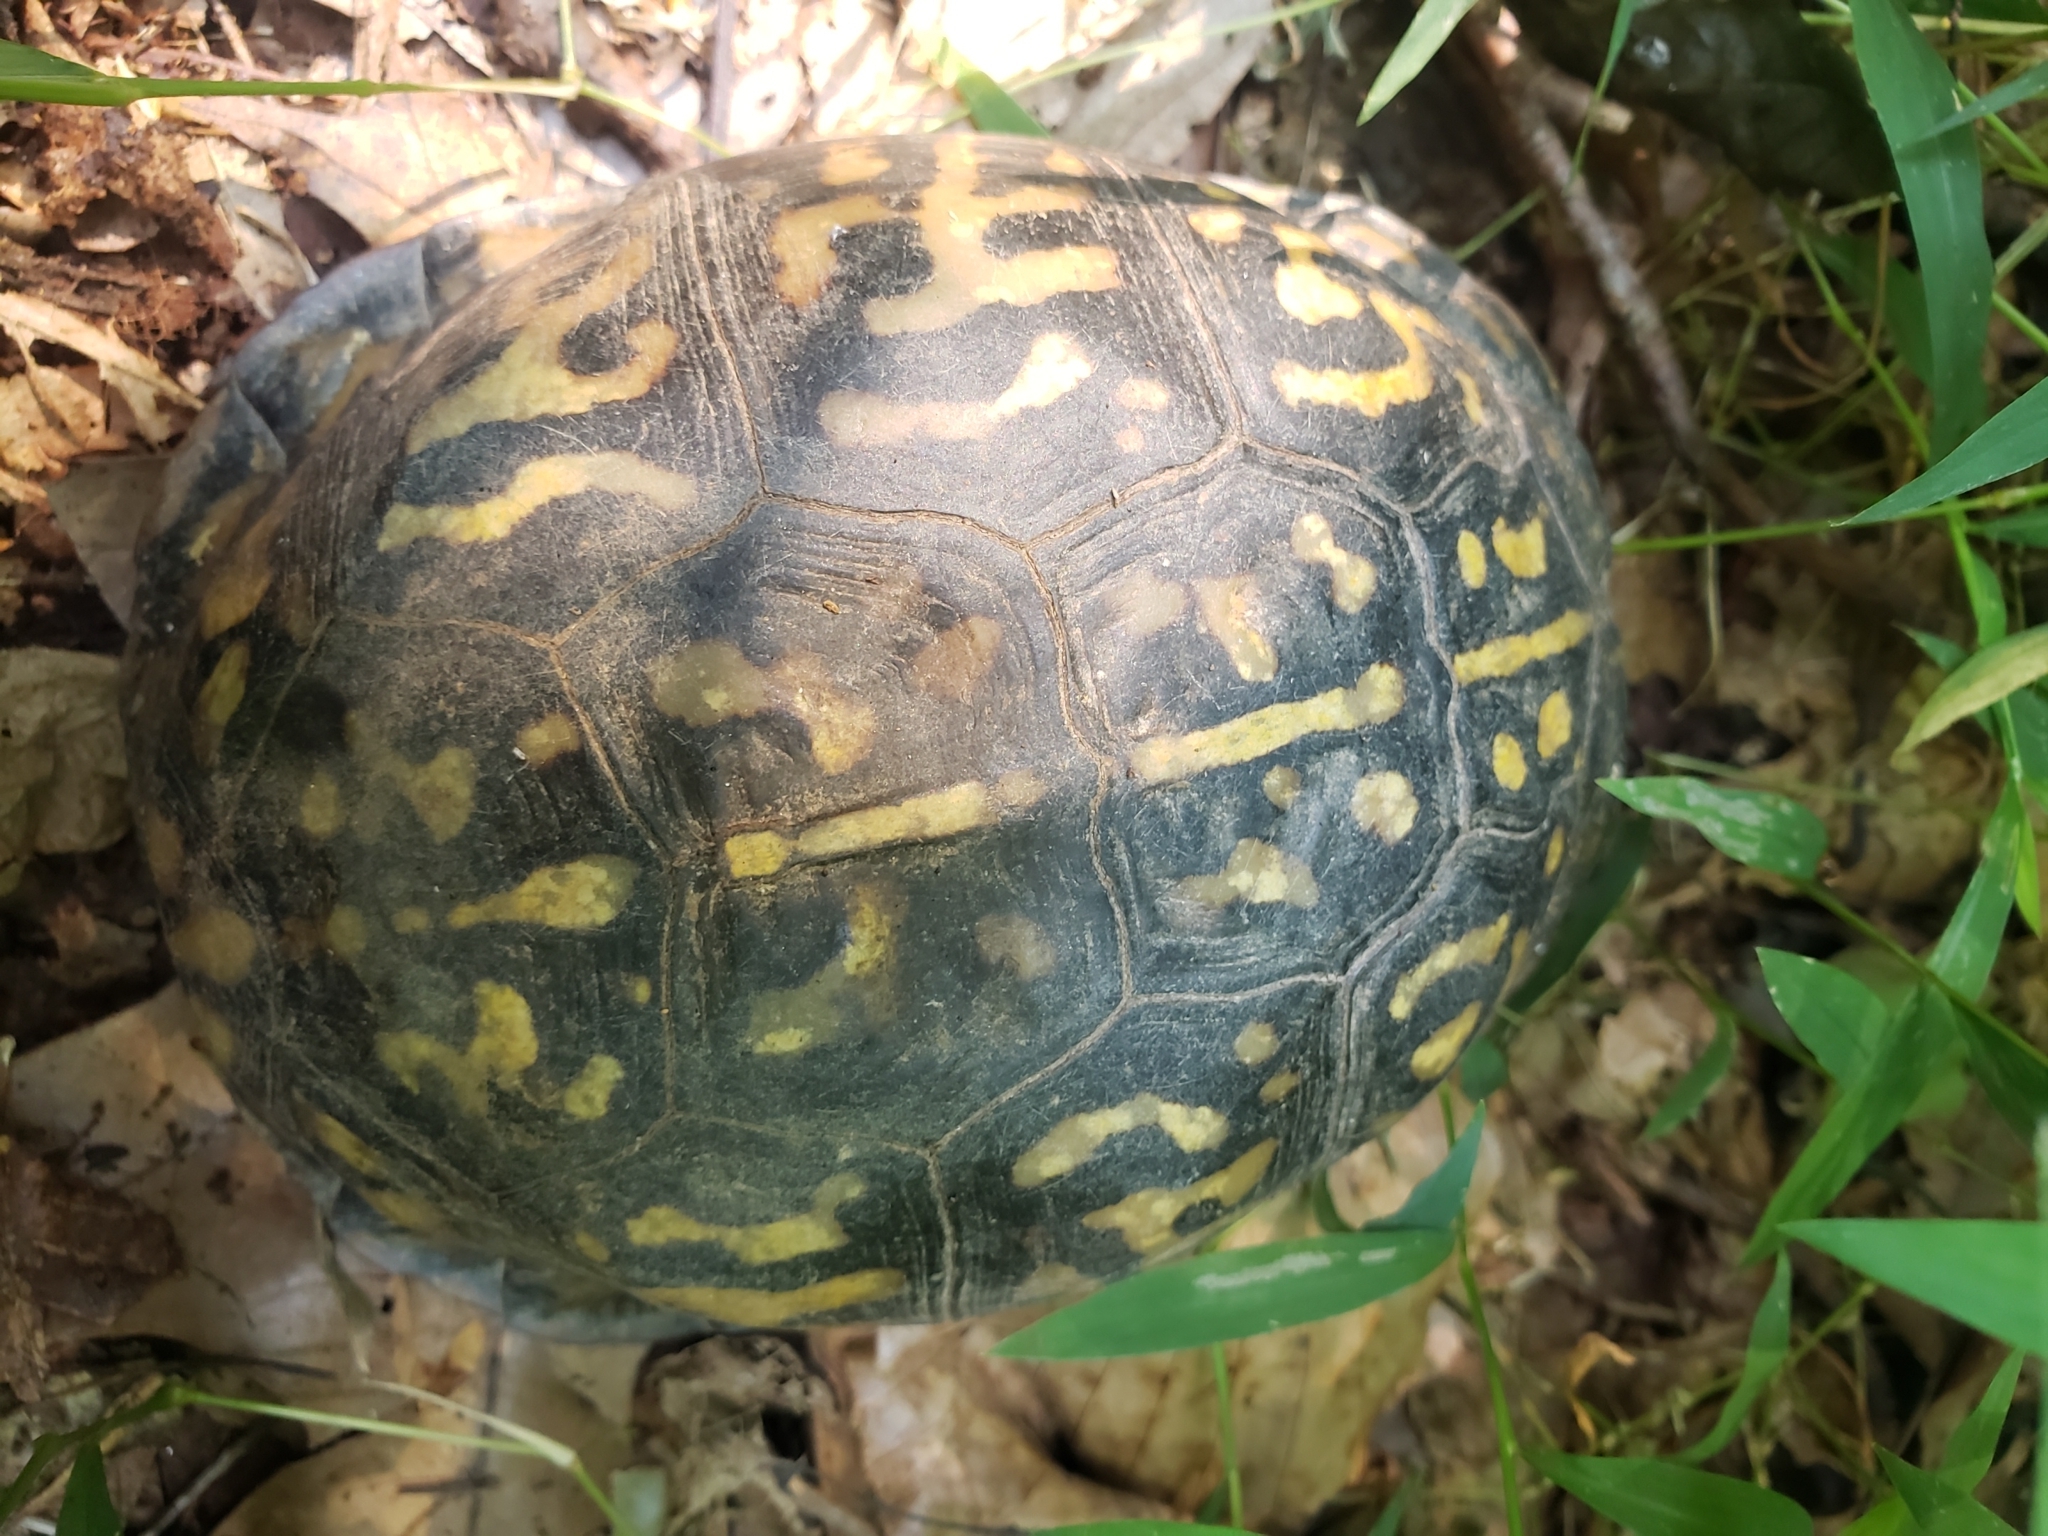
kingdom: Animalia
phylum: Chordata
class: Testudines
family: Emydidae
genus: Terrapene
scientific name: Terrapene carolina
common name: Common box turtle
